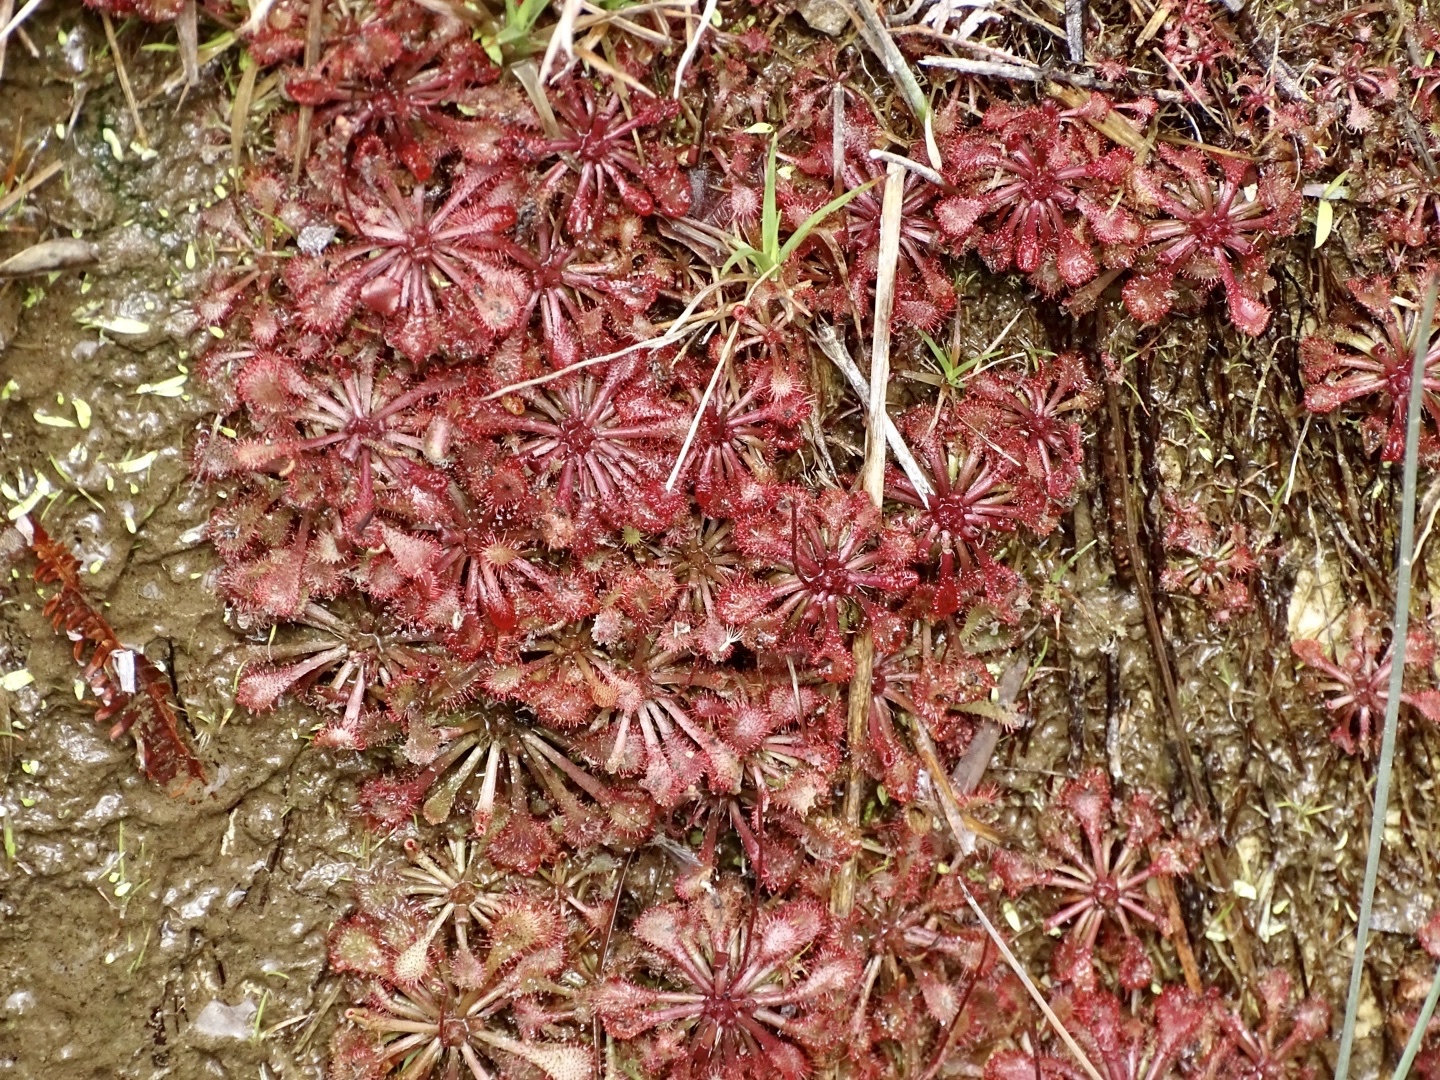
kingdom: Plantae
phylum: Tracheophyta
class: Magnoliopsida
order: Caryophyllales
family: Droseraceae
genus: Drosera
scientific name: Drosera spatulata
